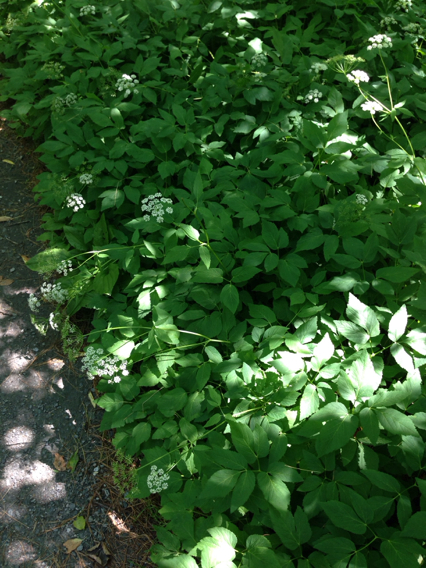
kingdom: Plantae
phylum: Tracheophyta
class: Magnoliopsida
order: Apiales
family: Apiaceae
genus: Aegopodium
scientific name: Aegopodium podagraria
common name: Ground-elder
